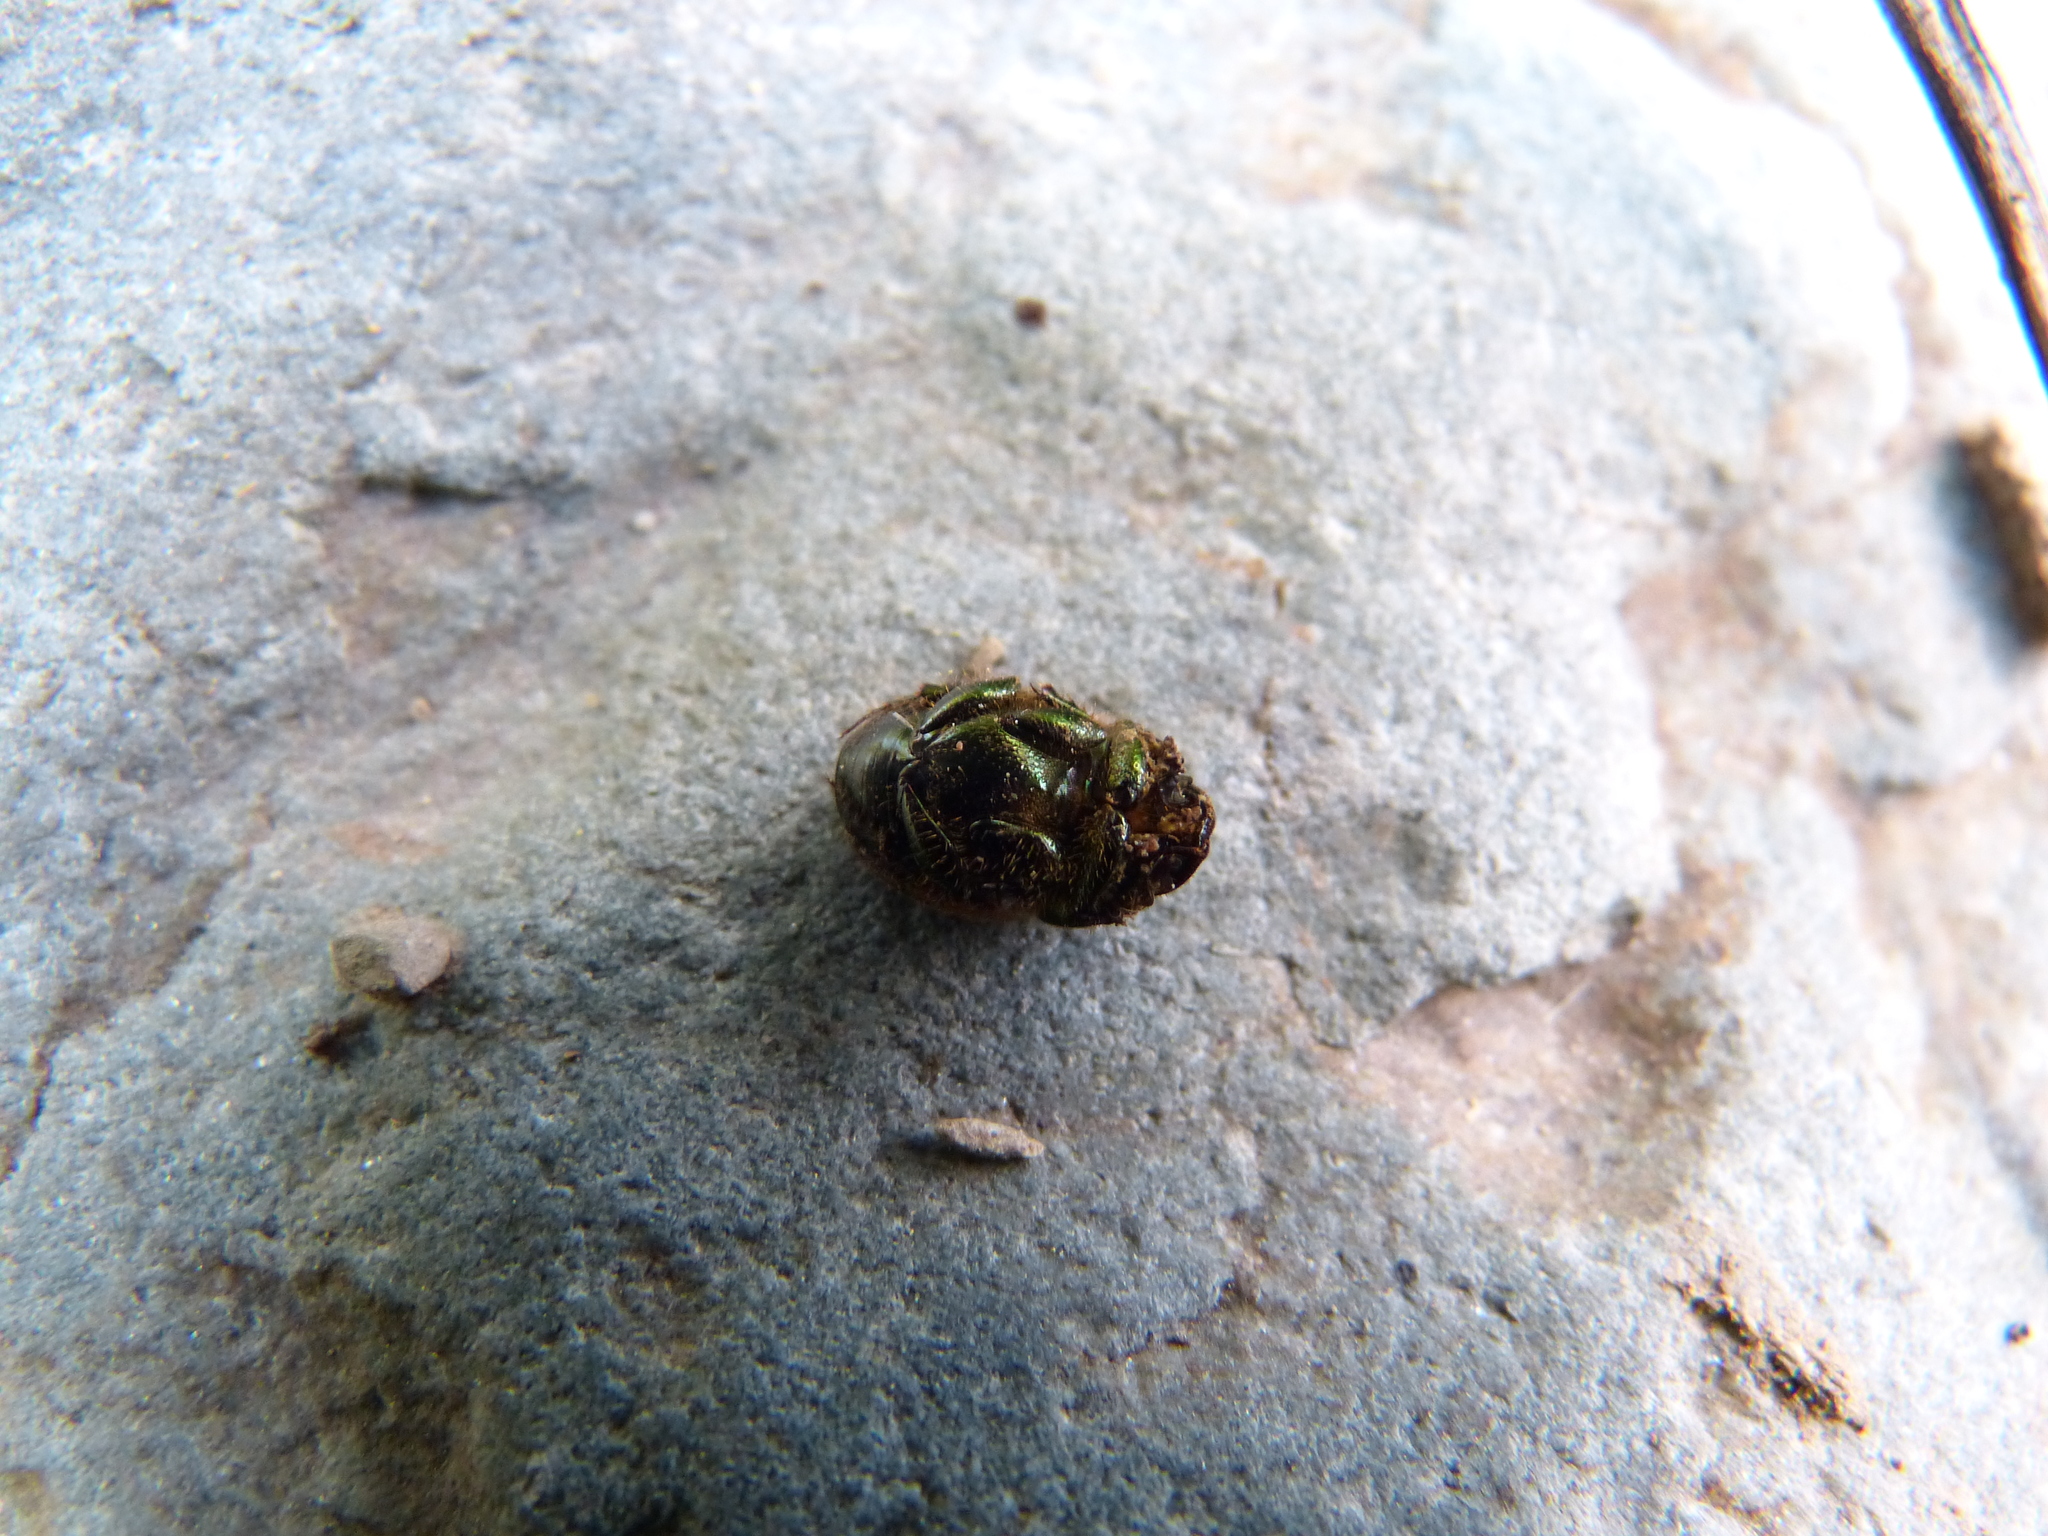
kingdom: Animalia
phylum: Arthropoda
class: Insecta
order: Coleoptera
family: Scarabaeidae
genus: Onthophagus
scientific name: Onthophagus coenobita
